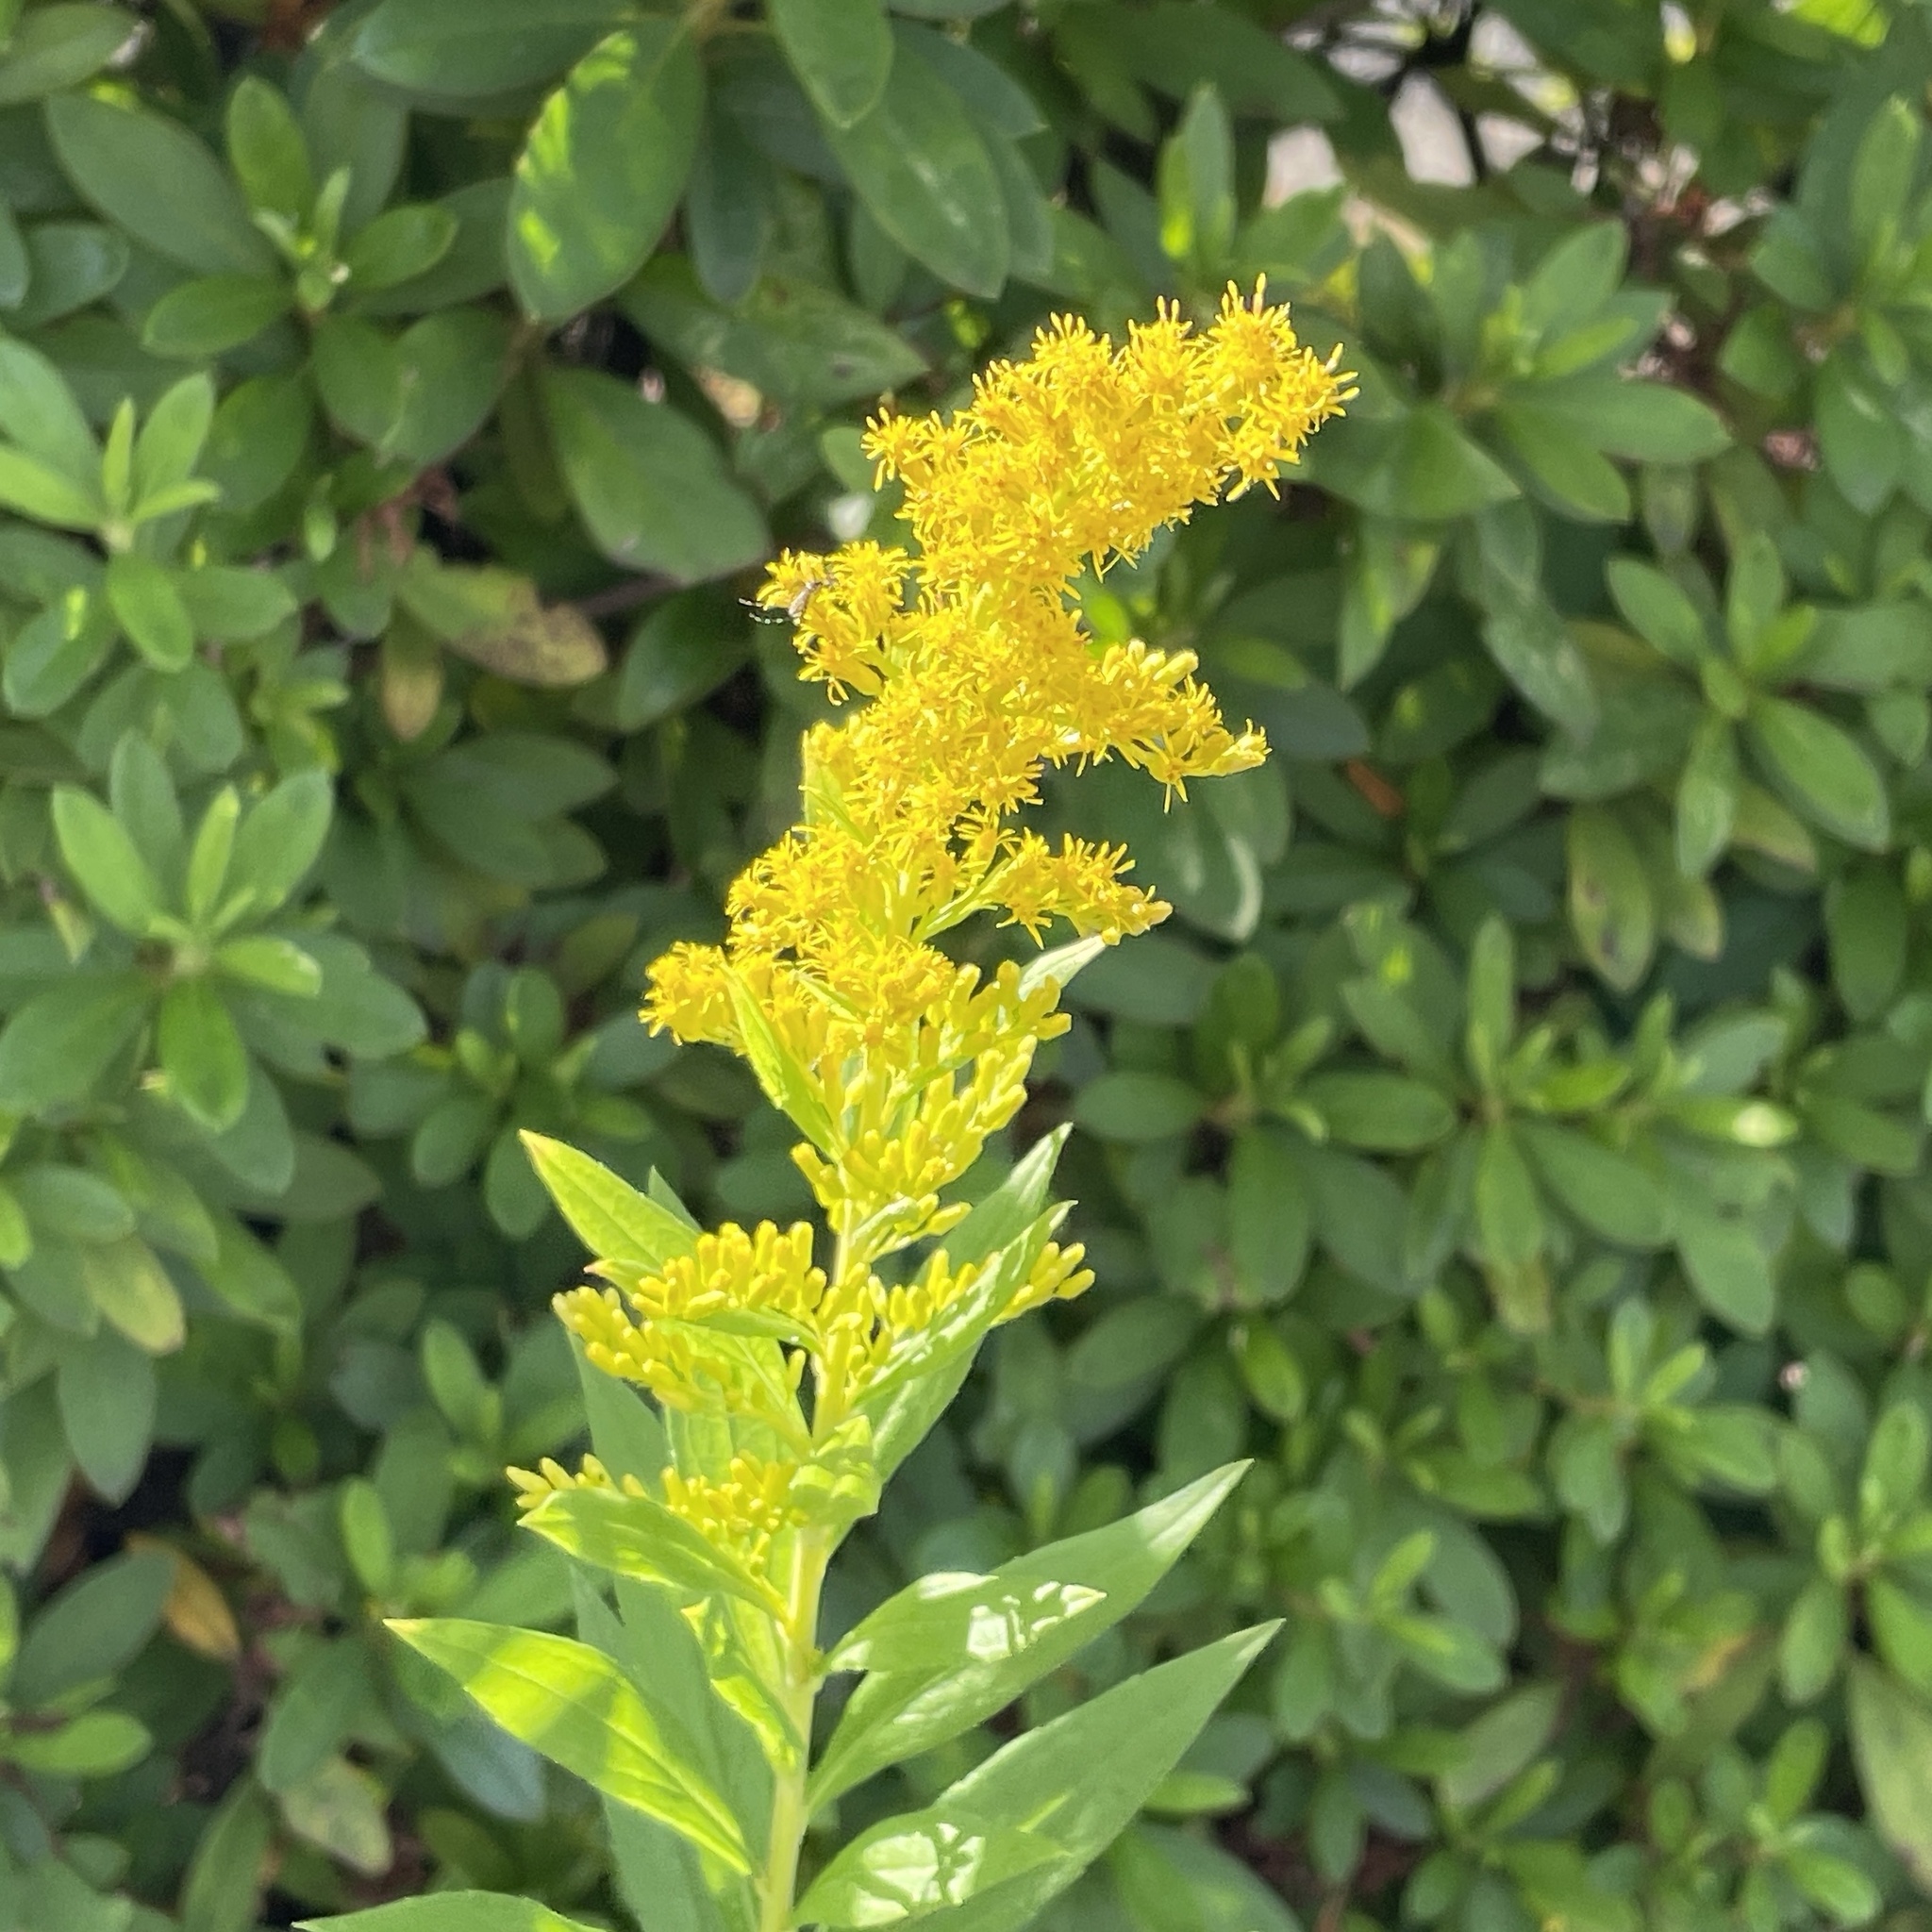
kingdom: Plantae
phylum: Tracheophyta
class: Magnoliopsida
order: Asterales
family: Asteraceae
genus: Solidago
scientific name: Solidago altissima
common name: Late goldenrod
